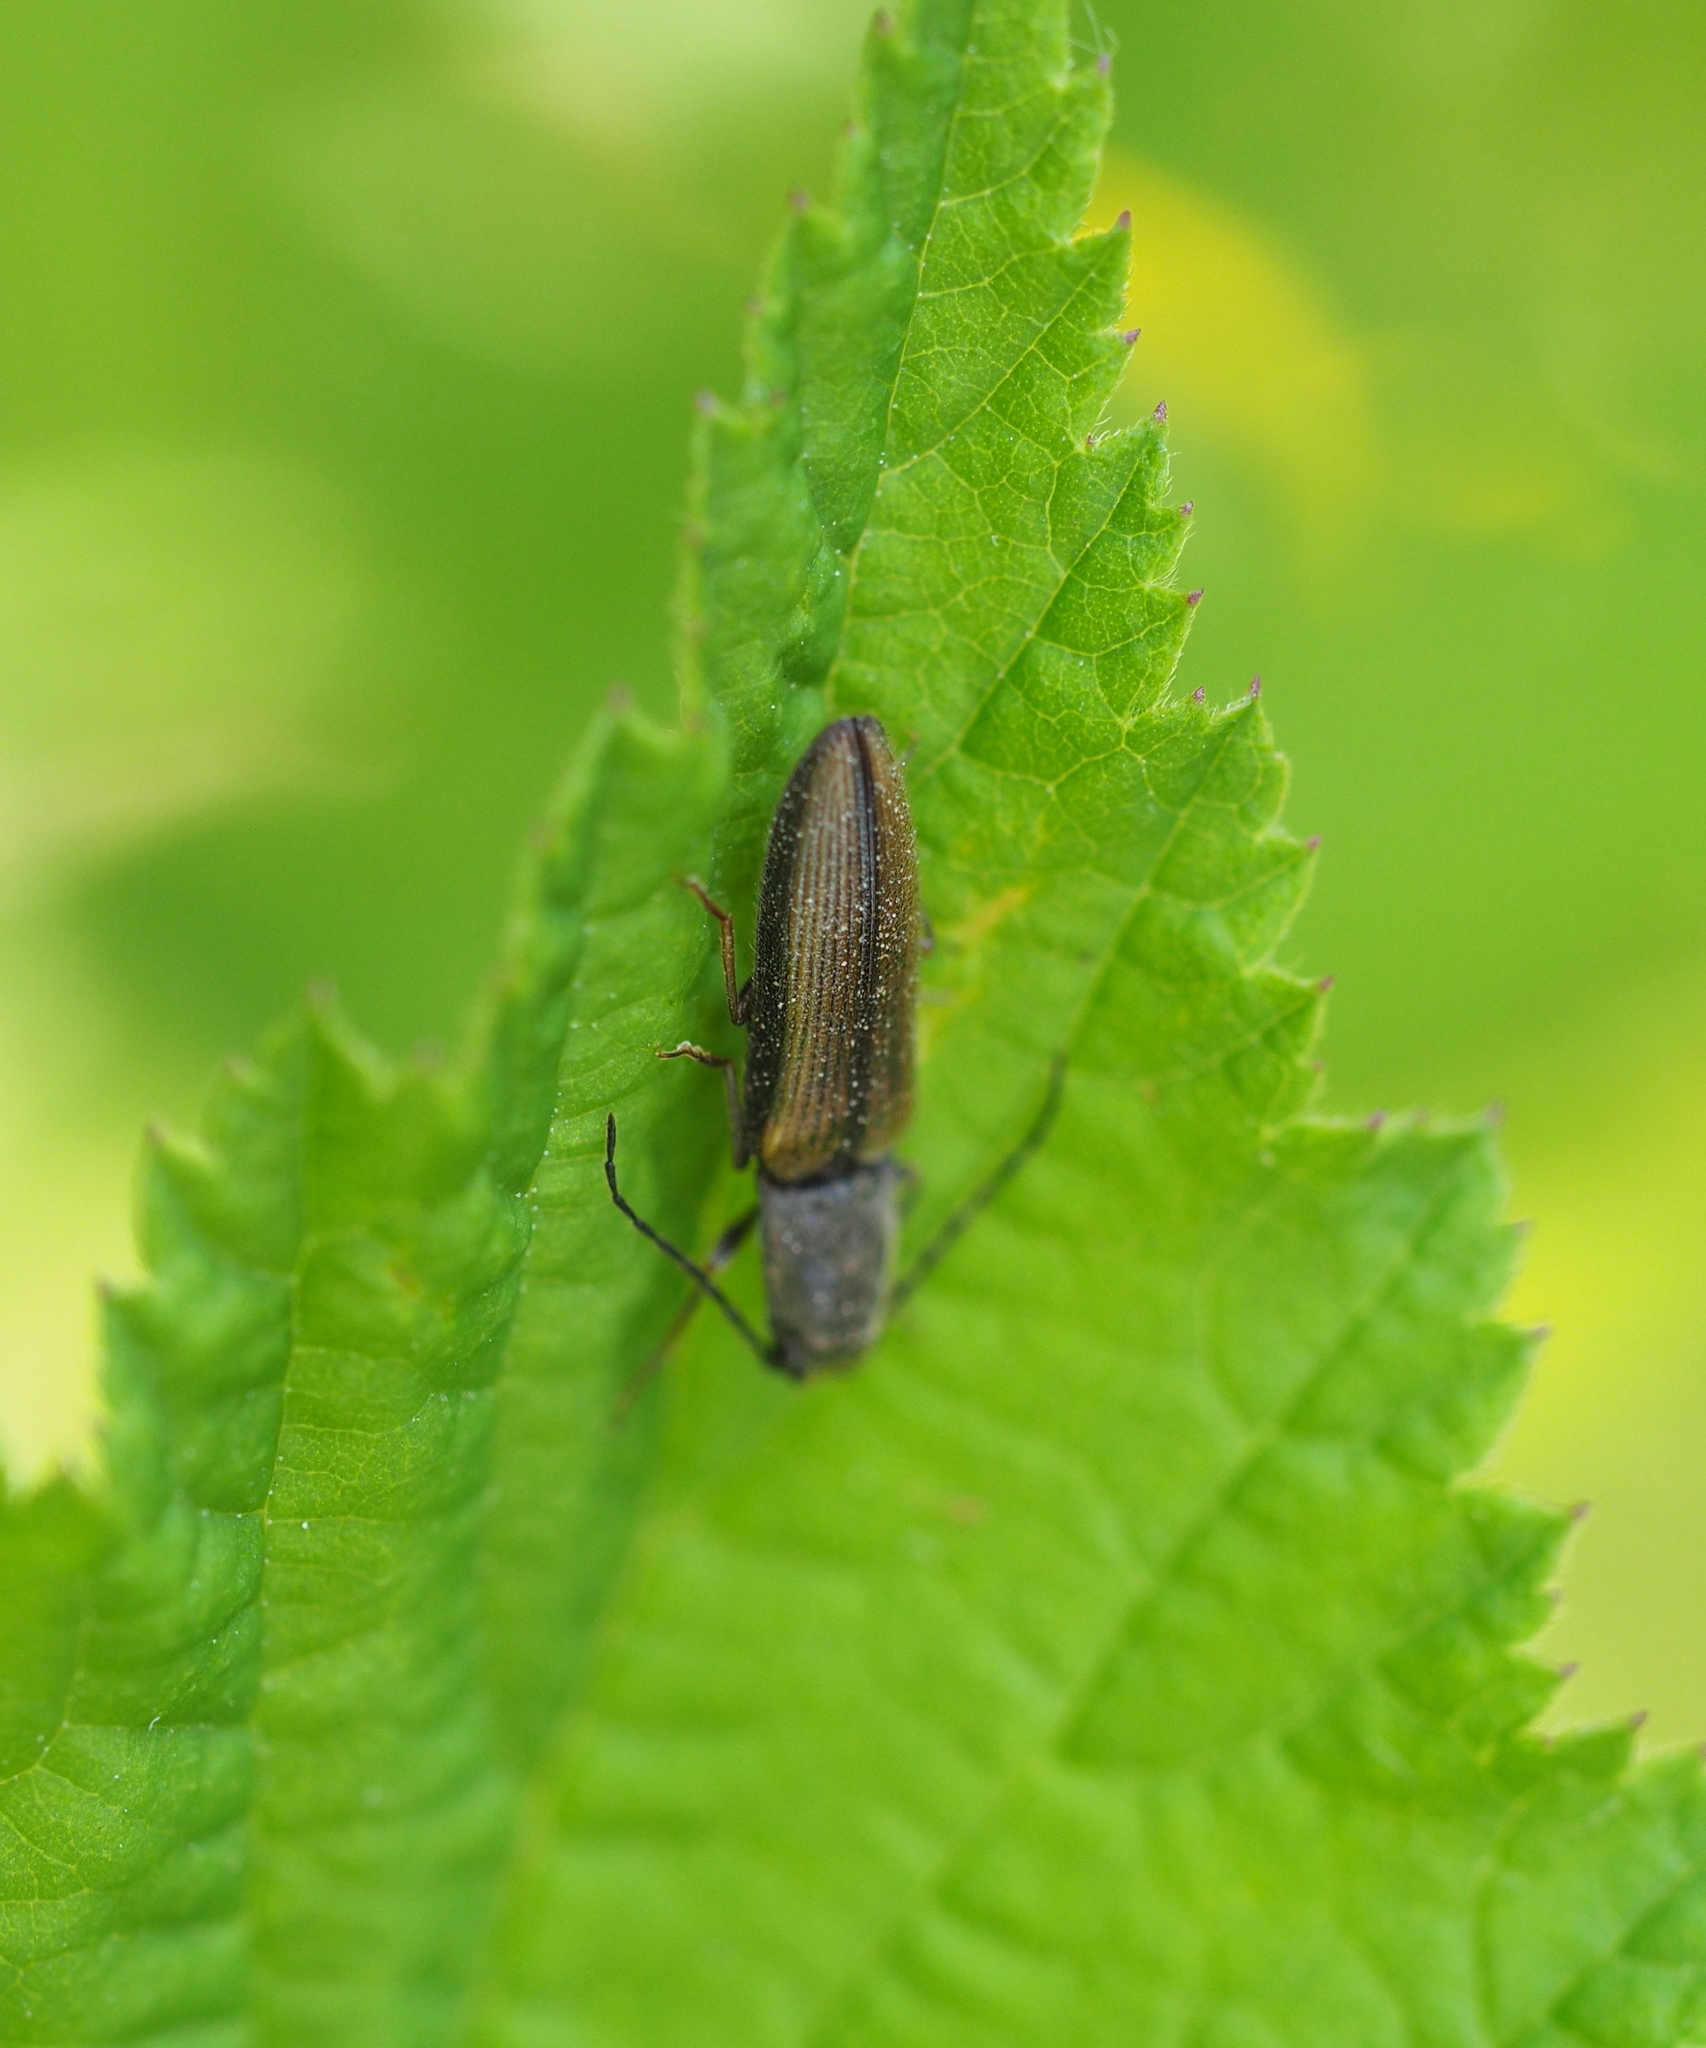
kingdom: Animalia
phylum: Arthropoda
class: Insecta
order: Coleoptera
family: Elateridae
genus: Athous
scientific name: Athous bicolor
